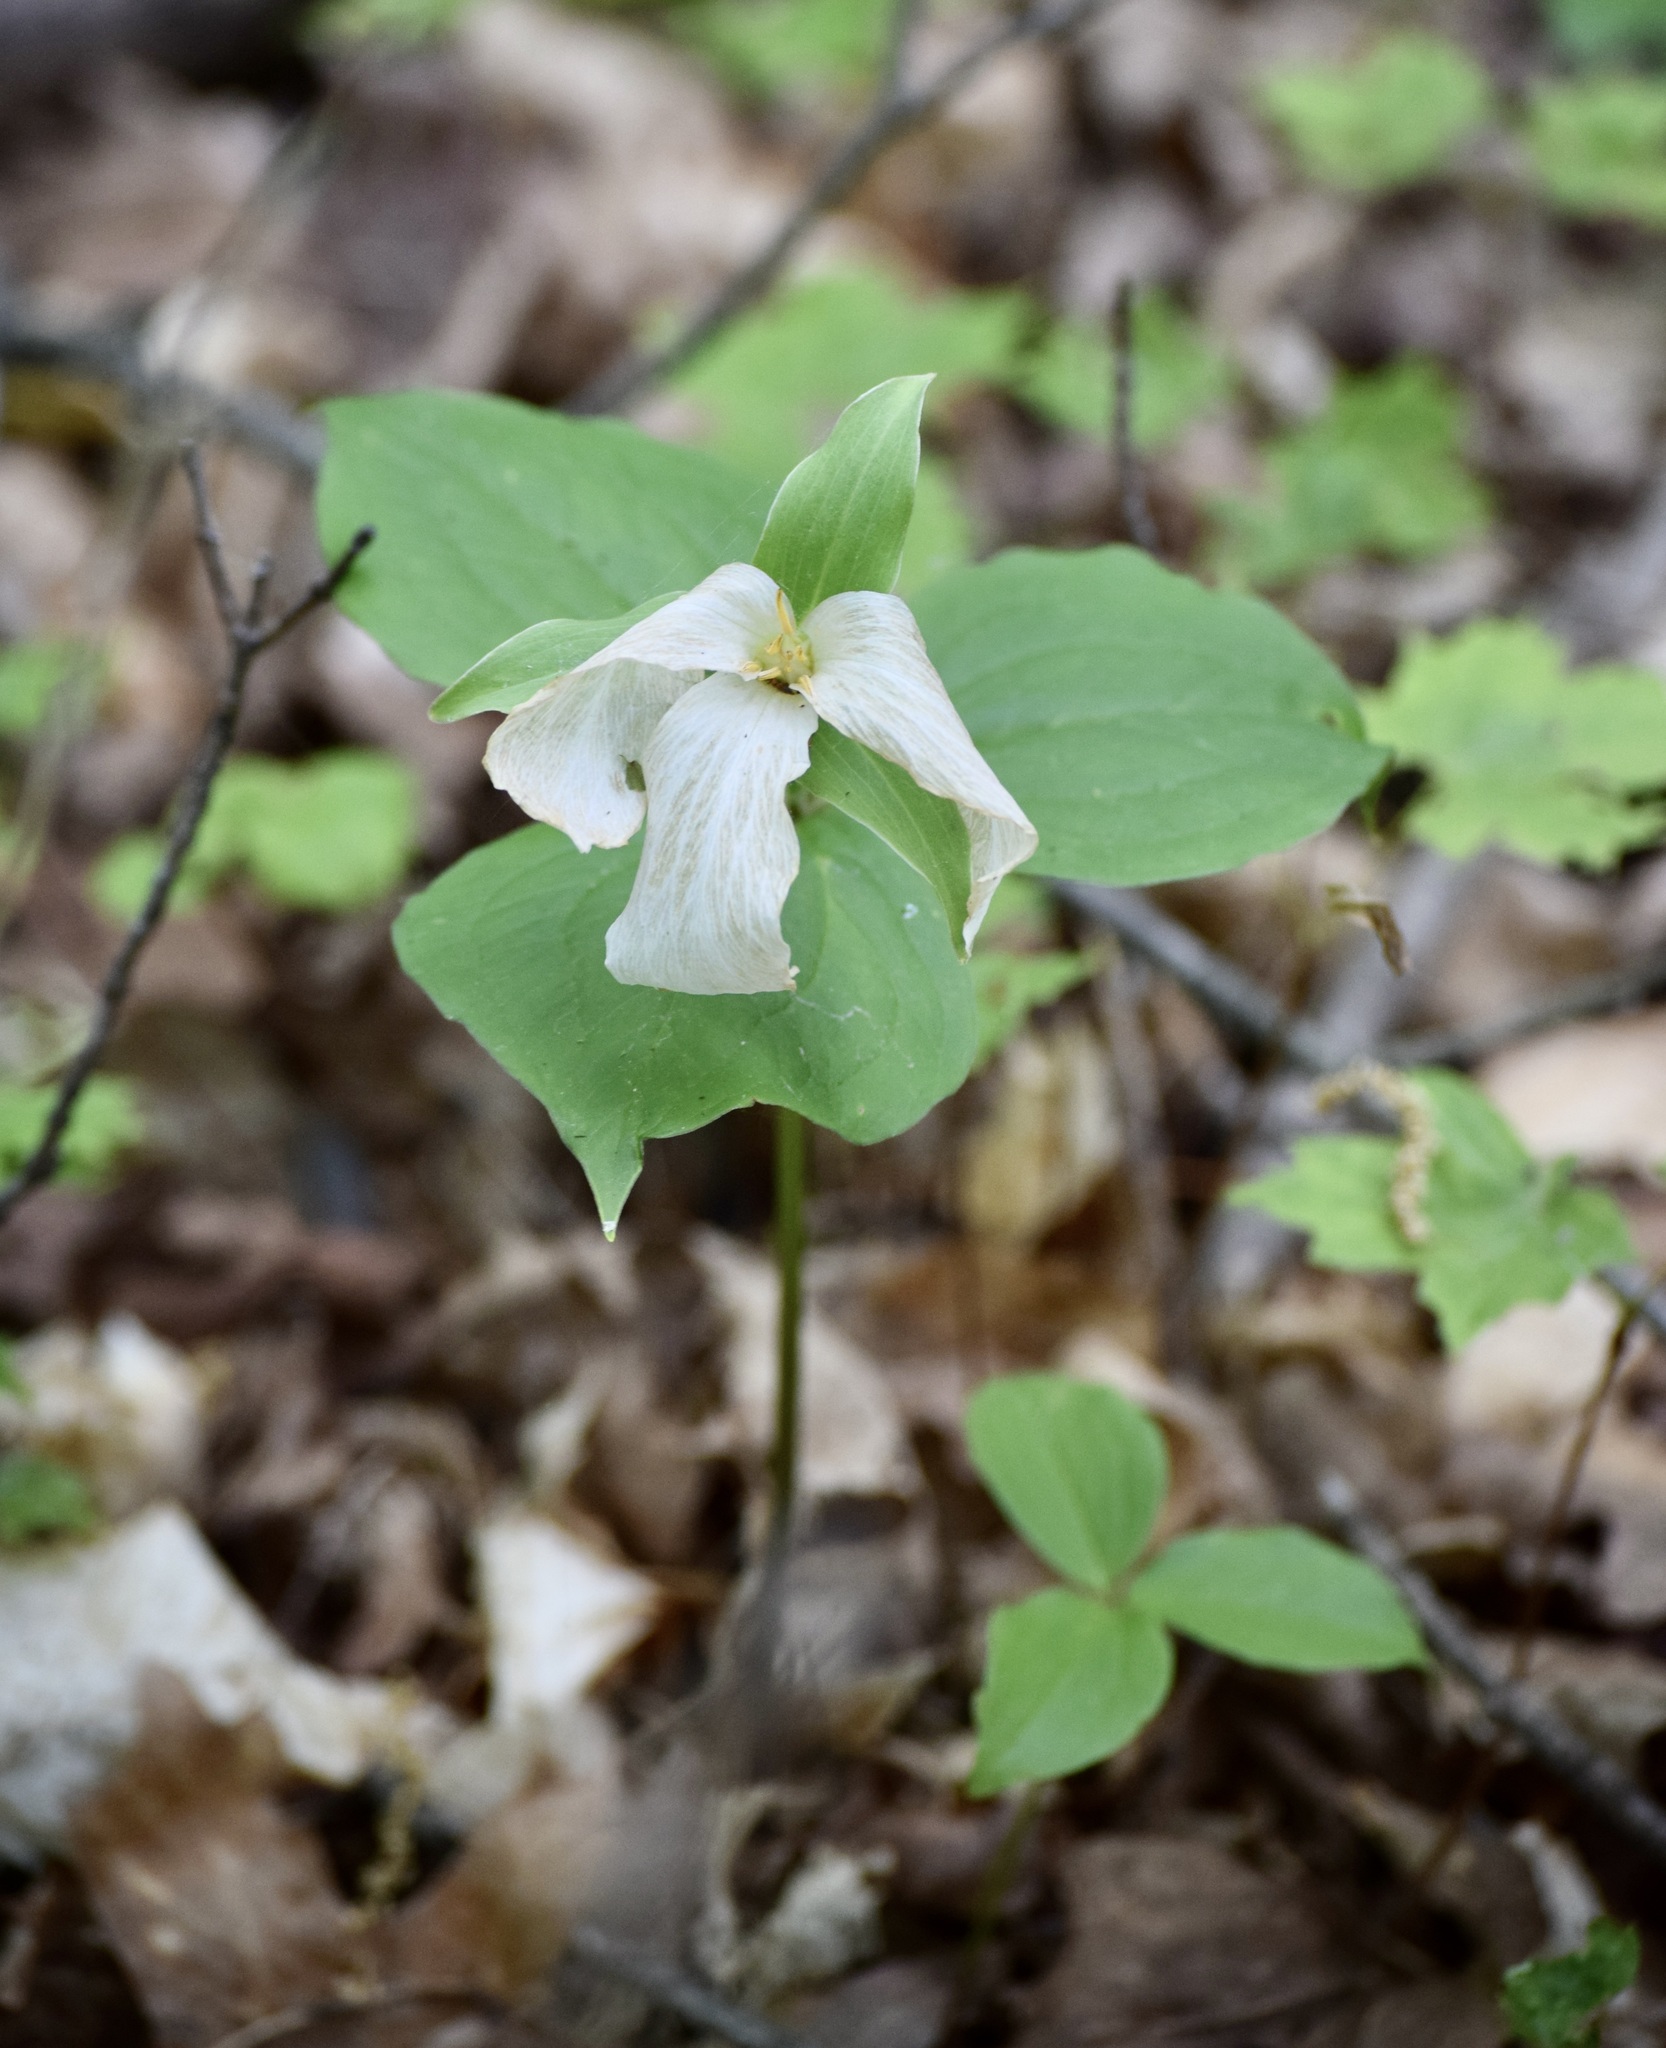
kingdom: Plantae
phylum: Tracheophyta
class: Liliopsida
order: Liliales
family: Melanthiaceae
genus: Trillium
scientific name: Trillium grandiflorum
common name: Great white trillium
